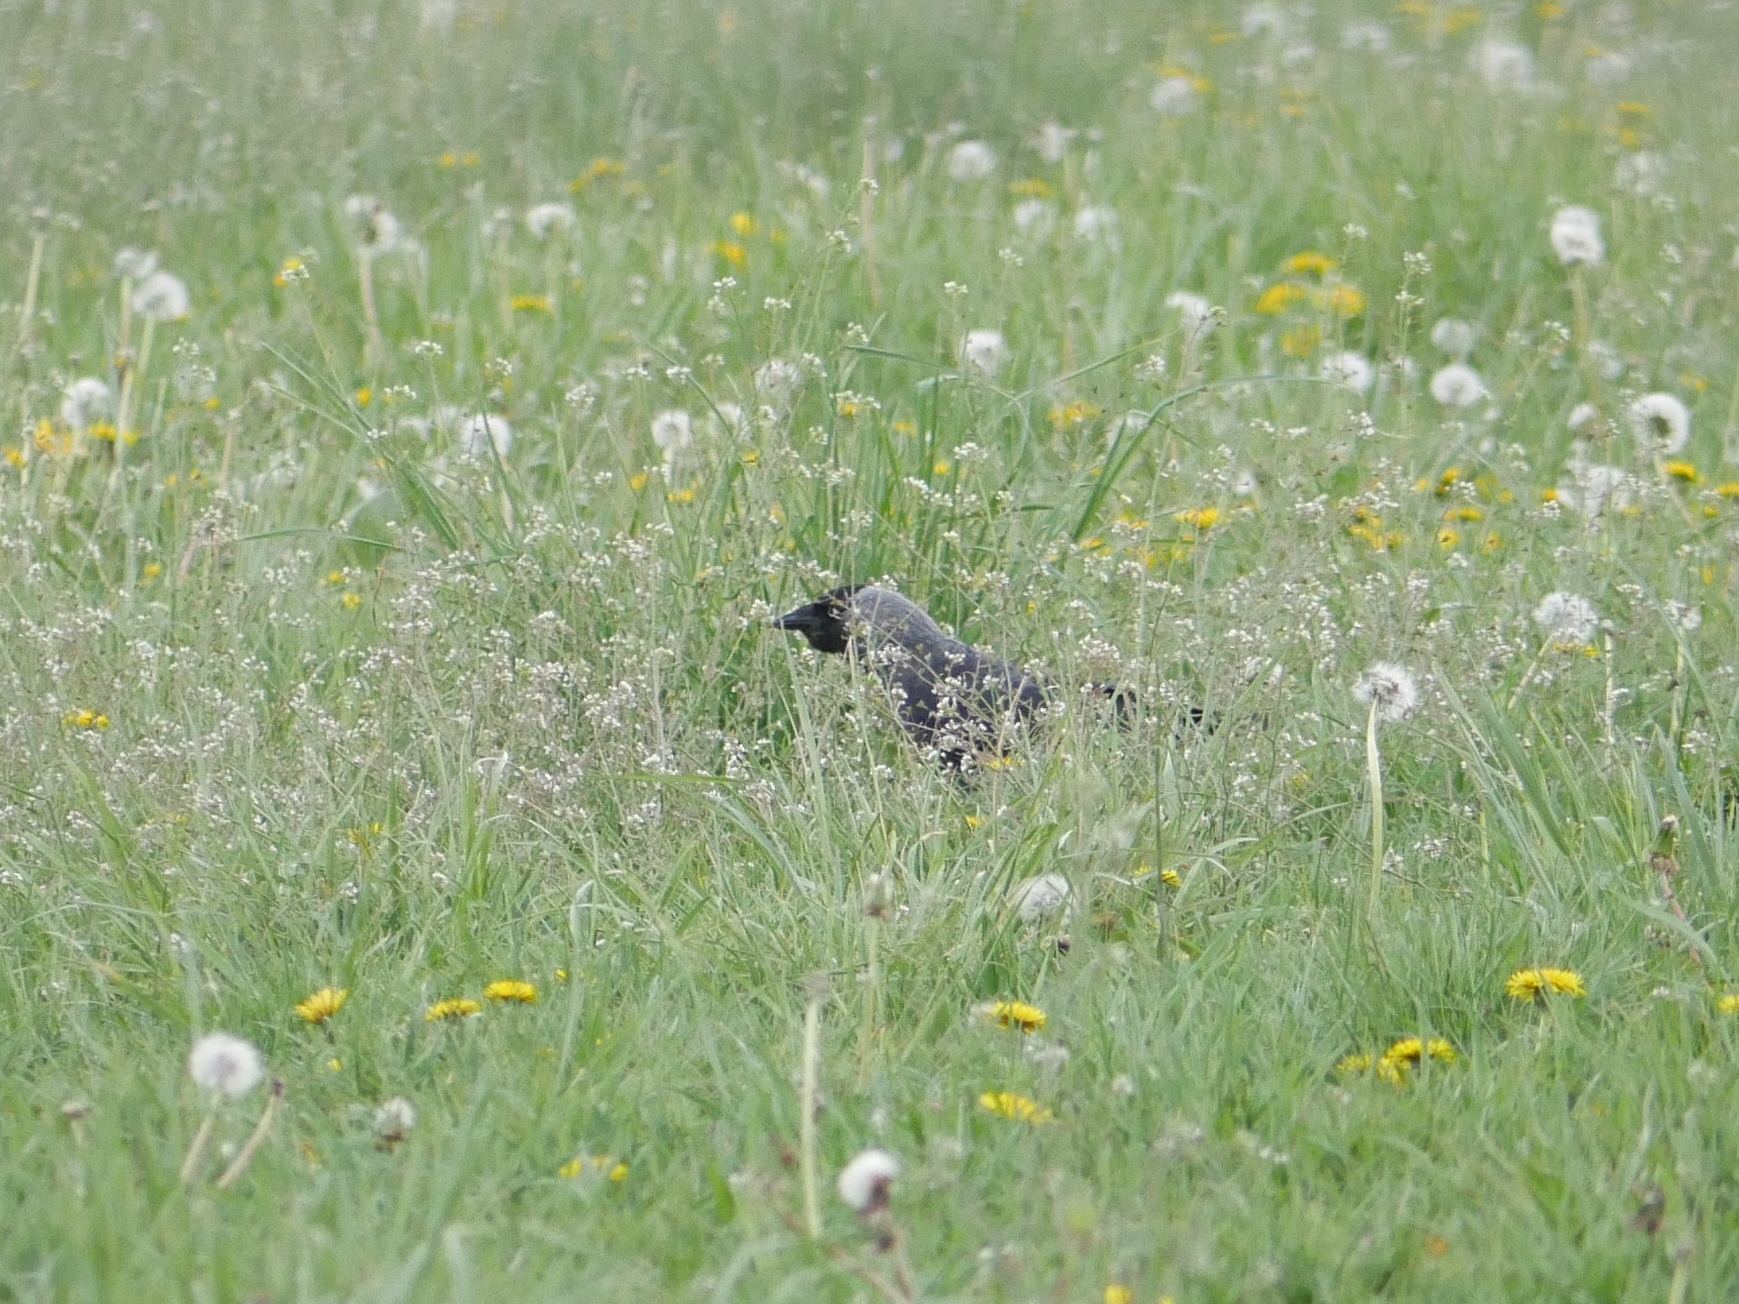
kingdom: Animalia
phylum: Chordata
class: Aves
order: Passeriformes
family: Corvidae
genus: Coloeus
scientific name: Coloeus monedula
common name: Western jackdaw
